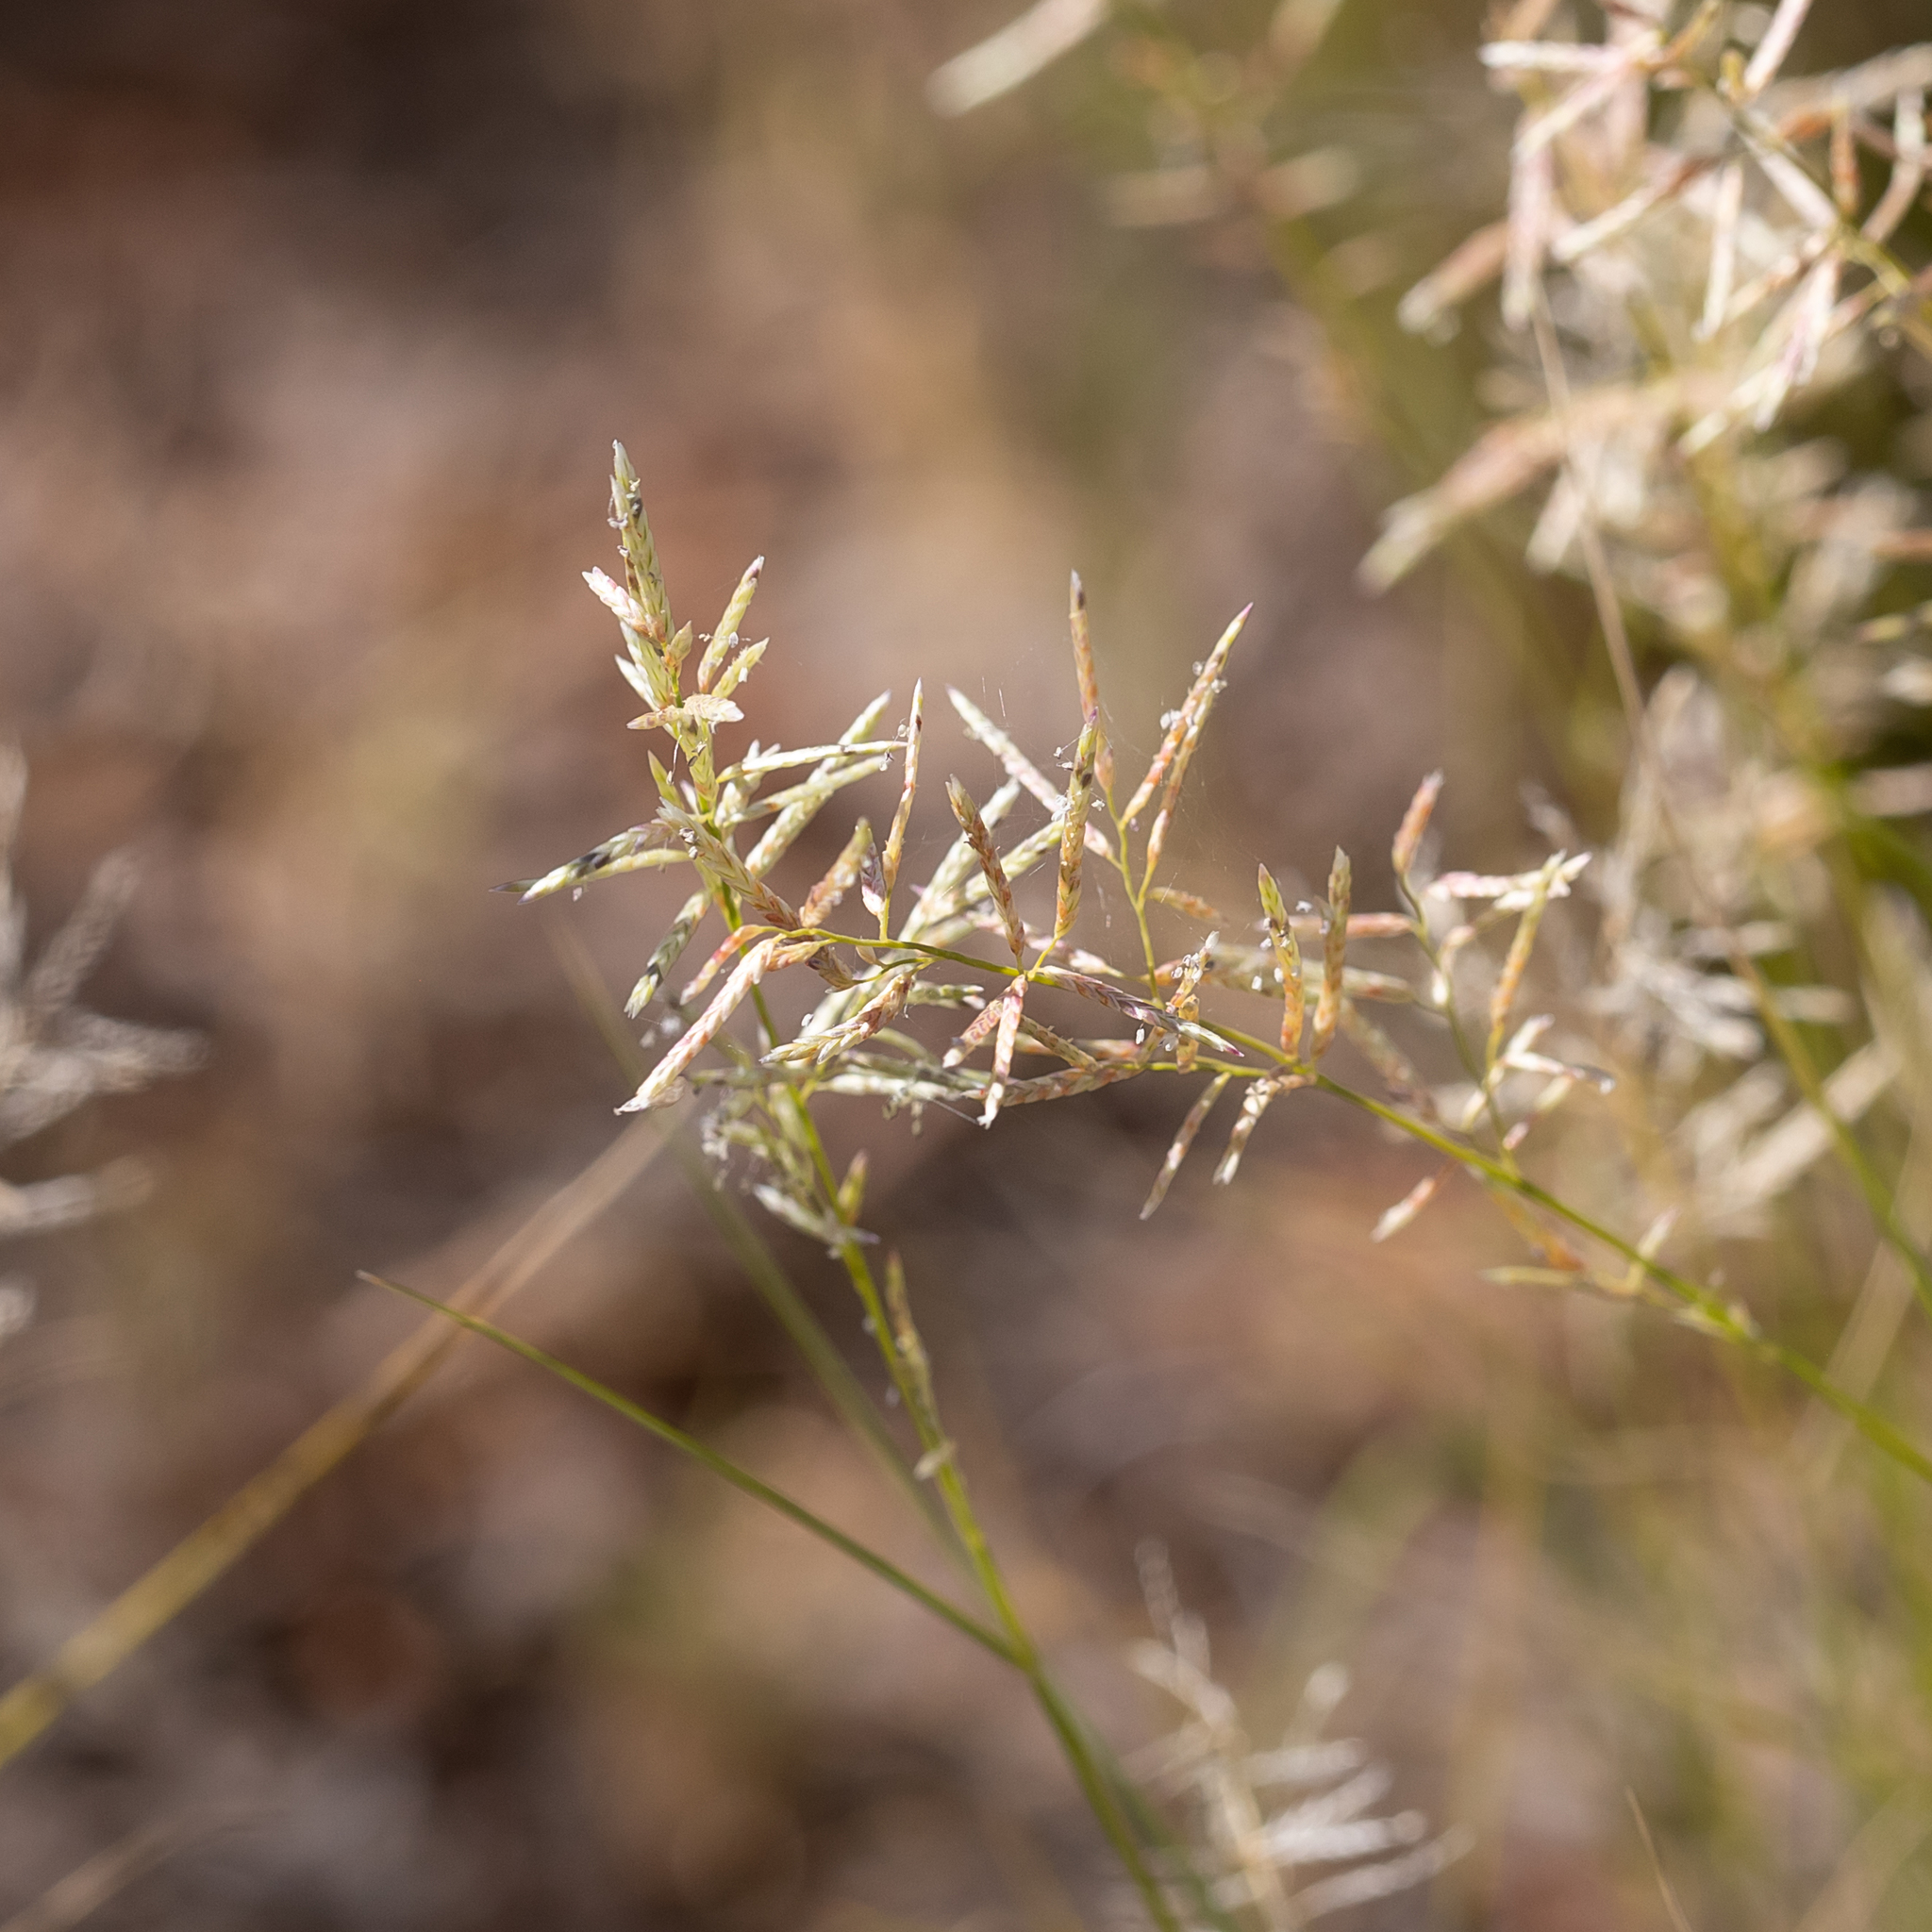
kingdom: Plantae
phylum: Tracheophyta
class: Liliopsida
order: Poales
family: Poaceae
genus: Eragrostis
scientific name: Eragrostis setifolia
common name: Bristleleaf lovegrass
